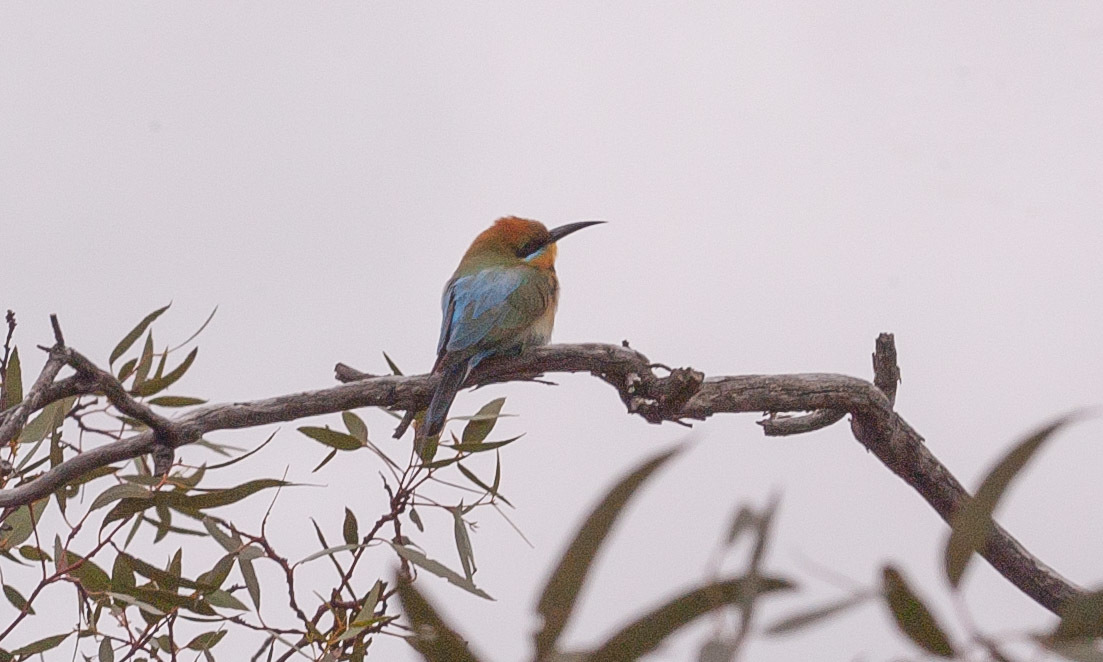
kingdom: Animalia
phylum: Chordata
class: Aves
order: Coraciiformes
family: Meropidae
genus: Merops
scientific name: Merops ornatus
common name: Rainbow bee-eater
